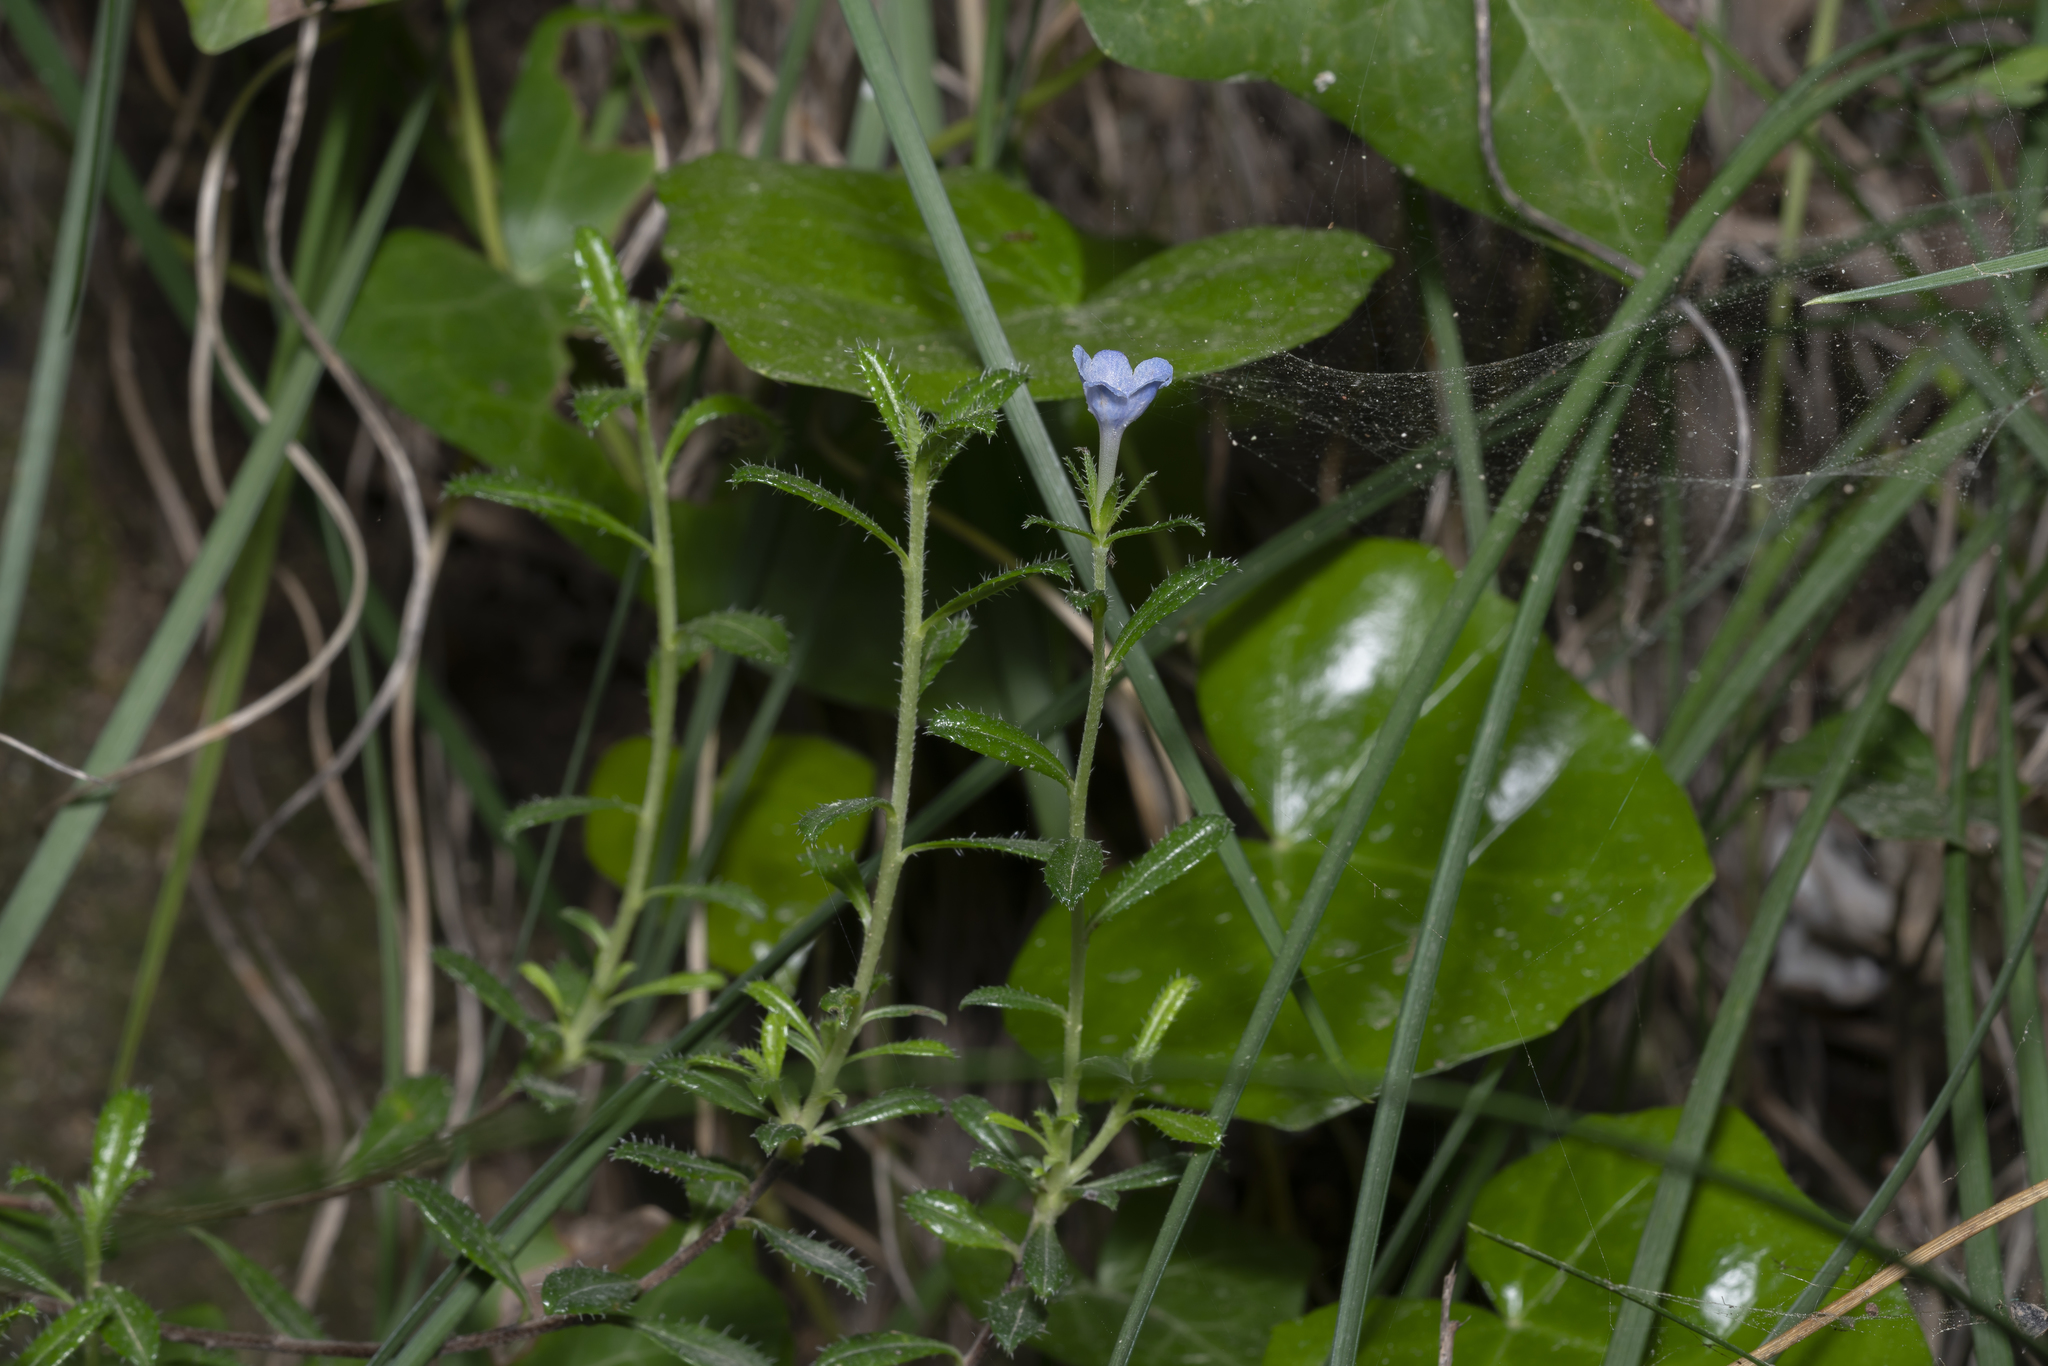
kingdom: Plantae
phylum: Tracheophyta
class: Magnoliopsida
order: Boraginales
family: Boraginaceae
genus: Lithodora
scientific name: Lithodora hispidula
